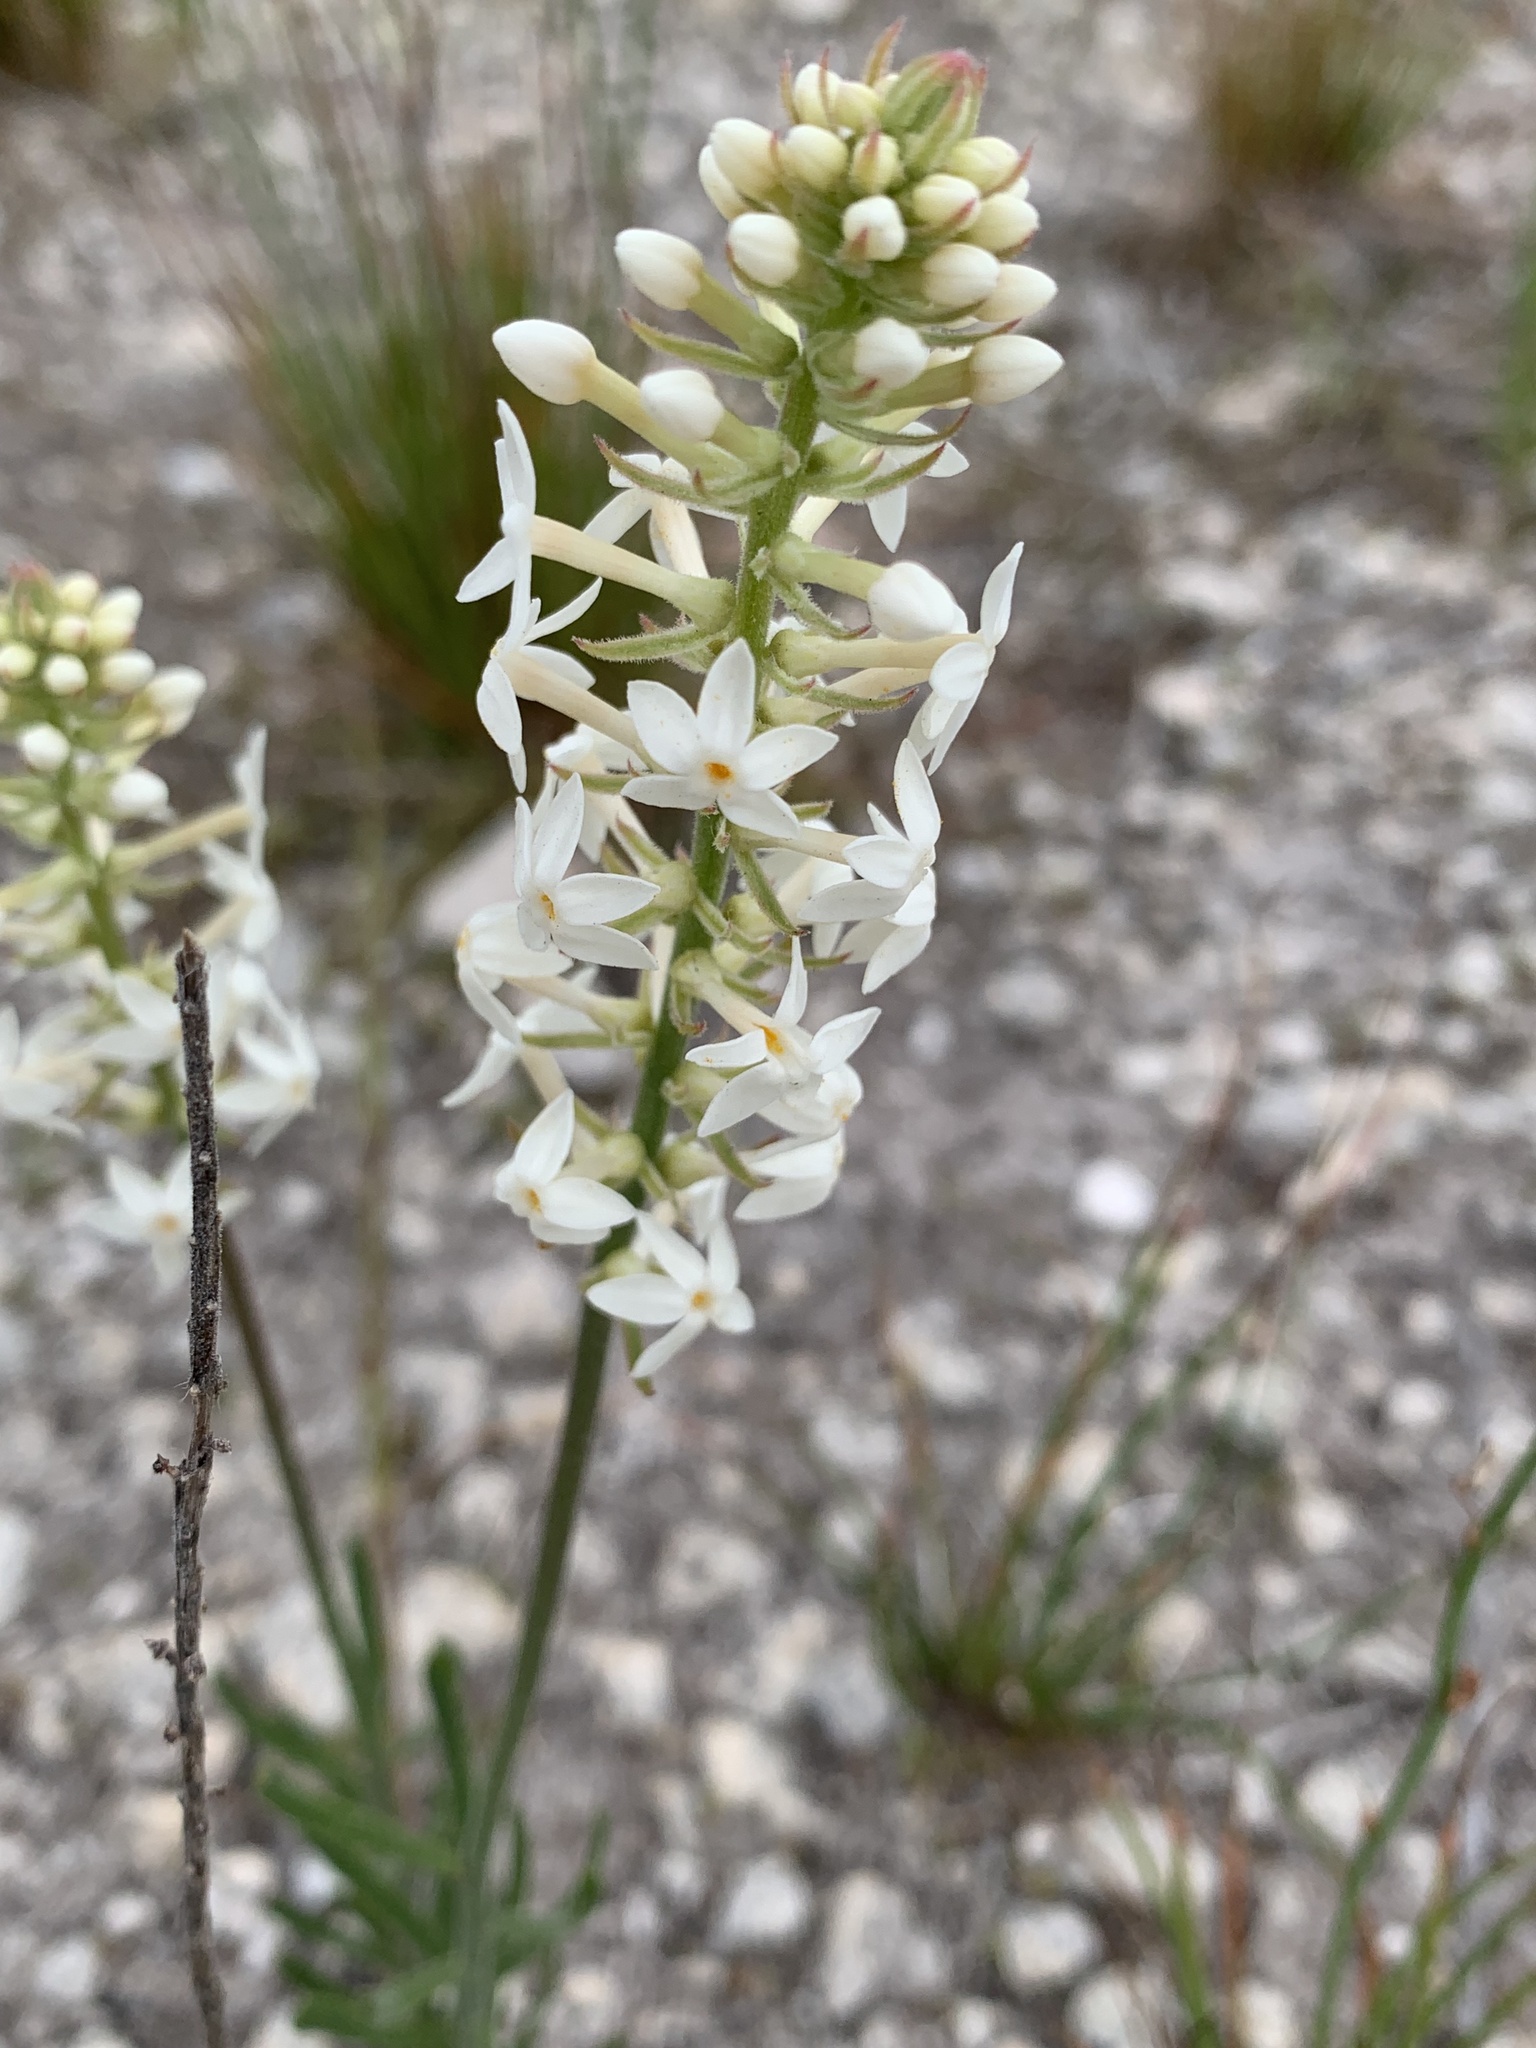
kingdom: Plantae
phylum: Tracheophyta
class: Magnoliopsida
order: Celastrales
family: Celastraceae
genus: Stackhousia
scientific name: Stackhousia monogyna
